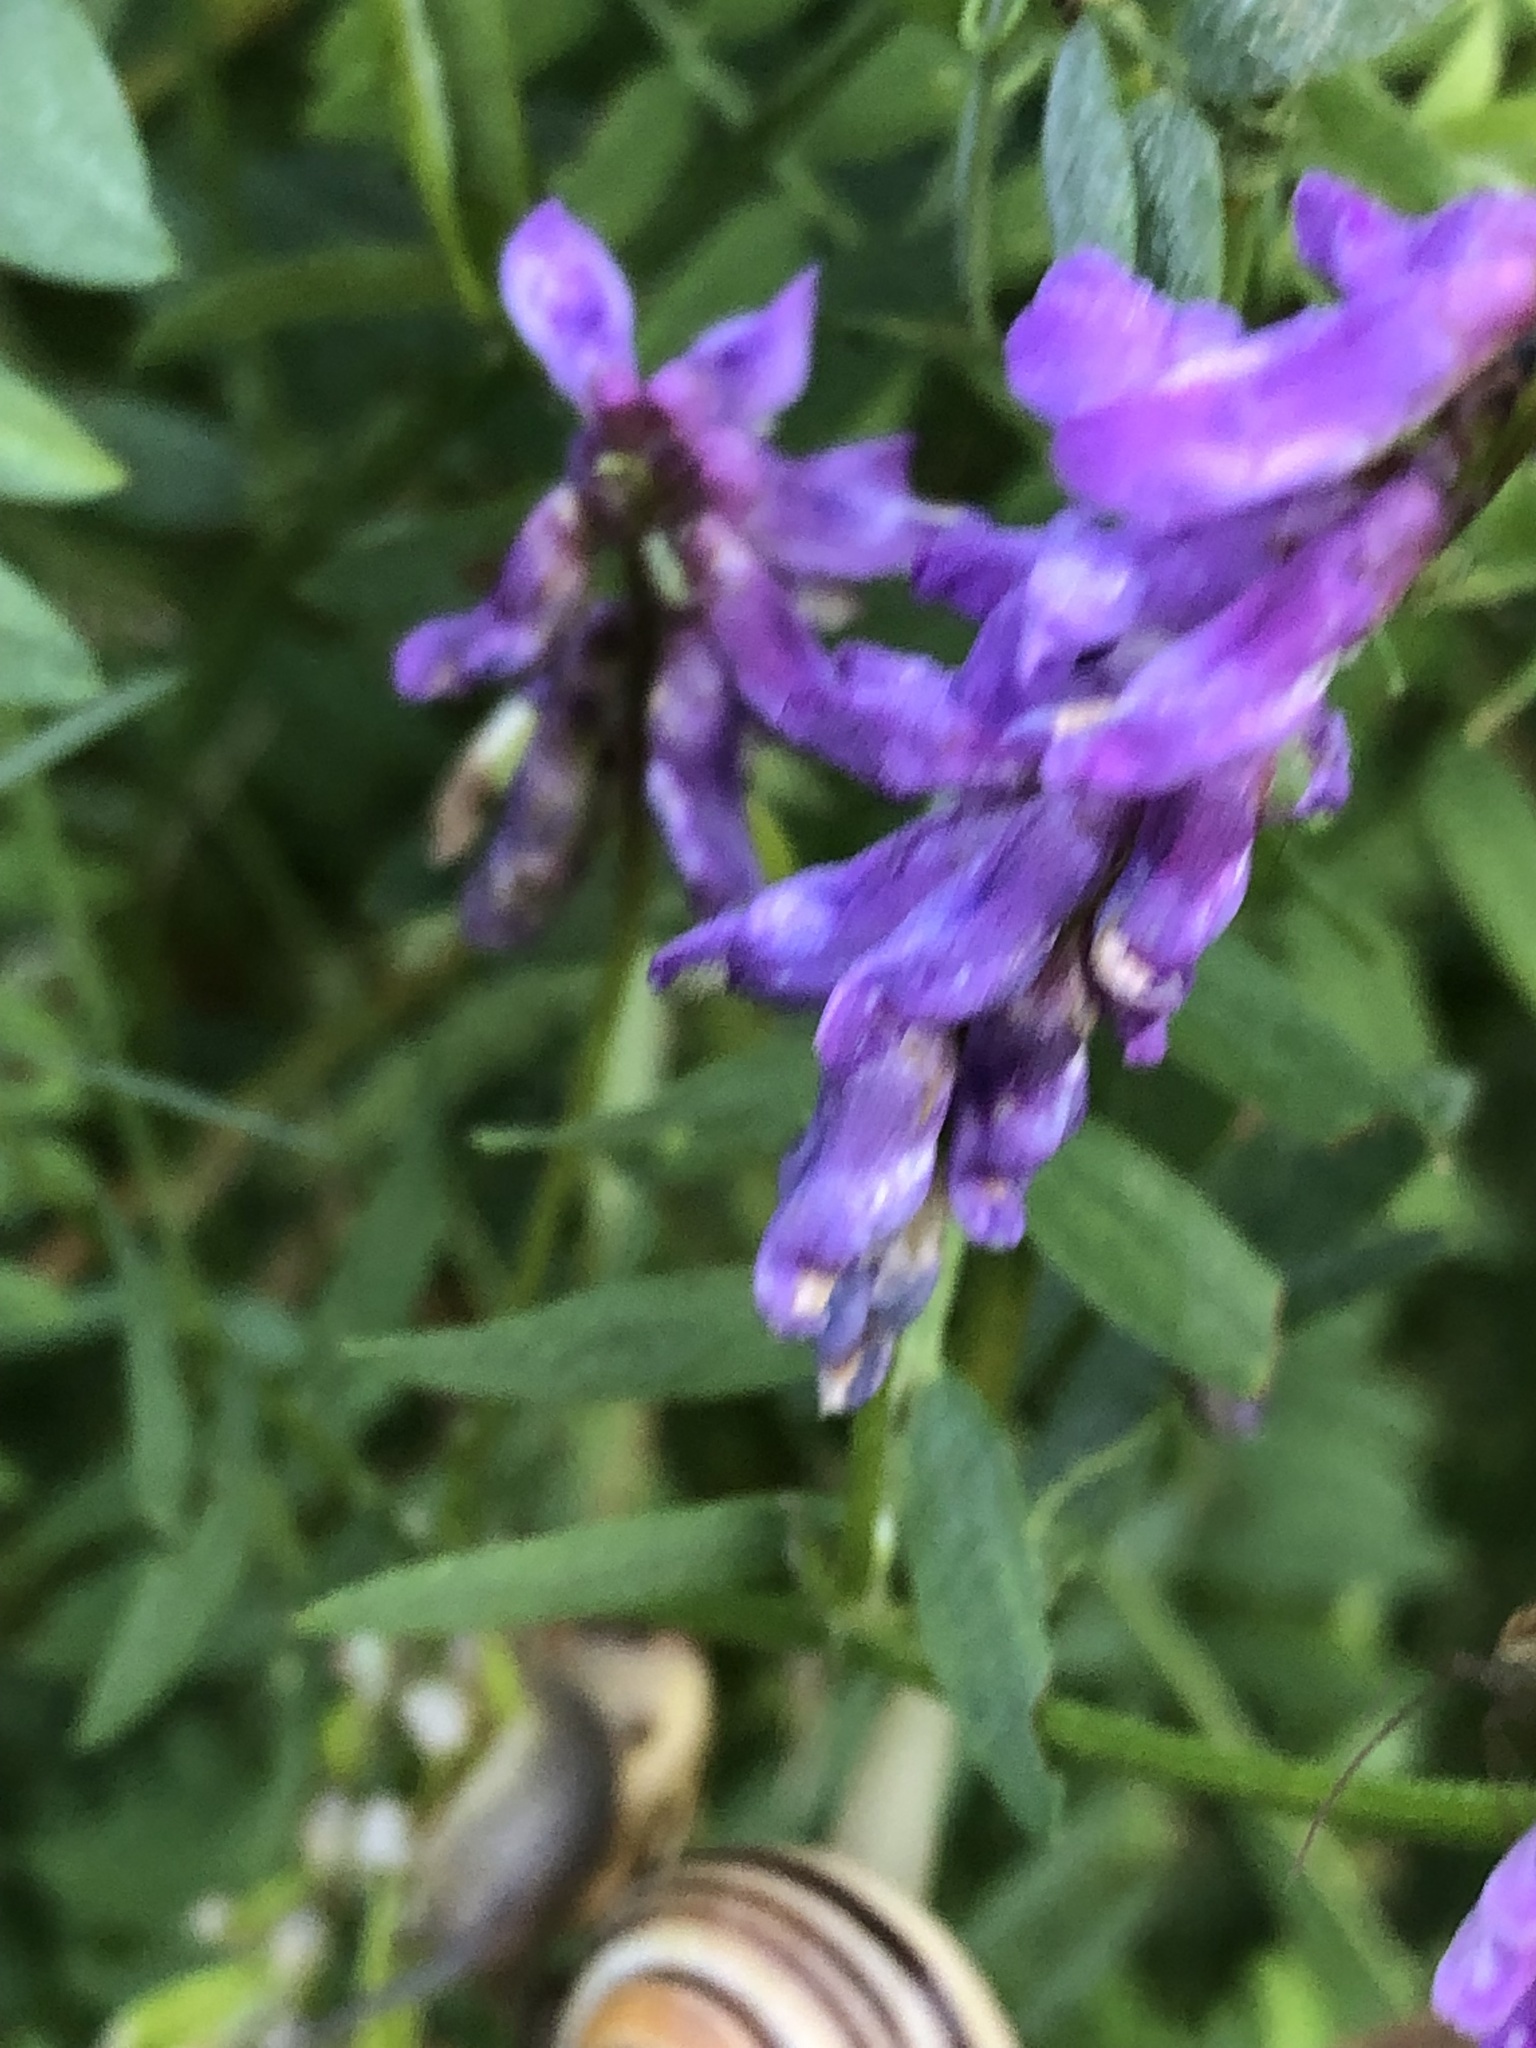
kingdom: Plantae
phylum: Tracheophyta
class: Magnoliopsida
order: Fabales
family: Fabaceae
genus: Vicia
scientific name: Vicia cracca
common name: Bird vetch
